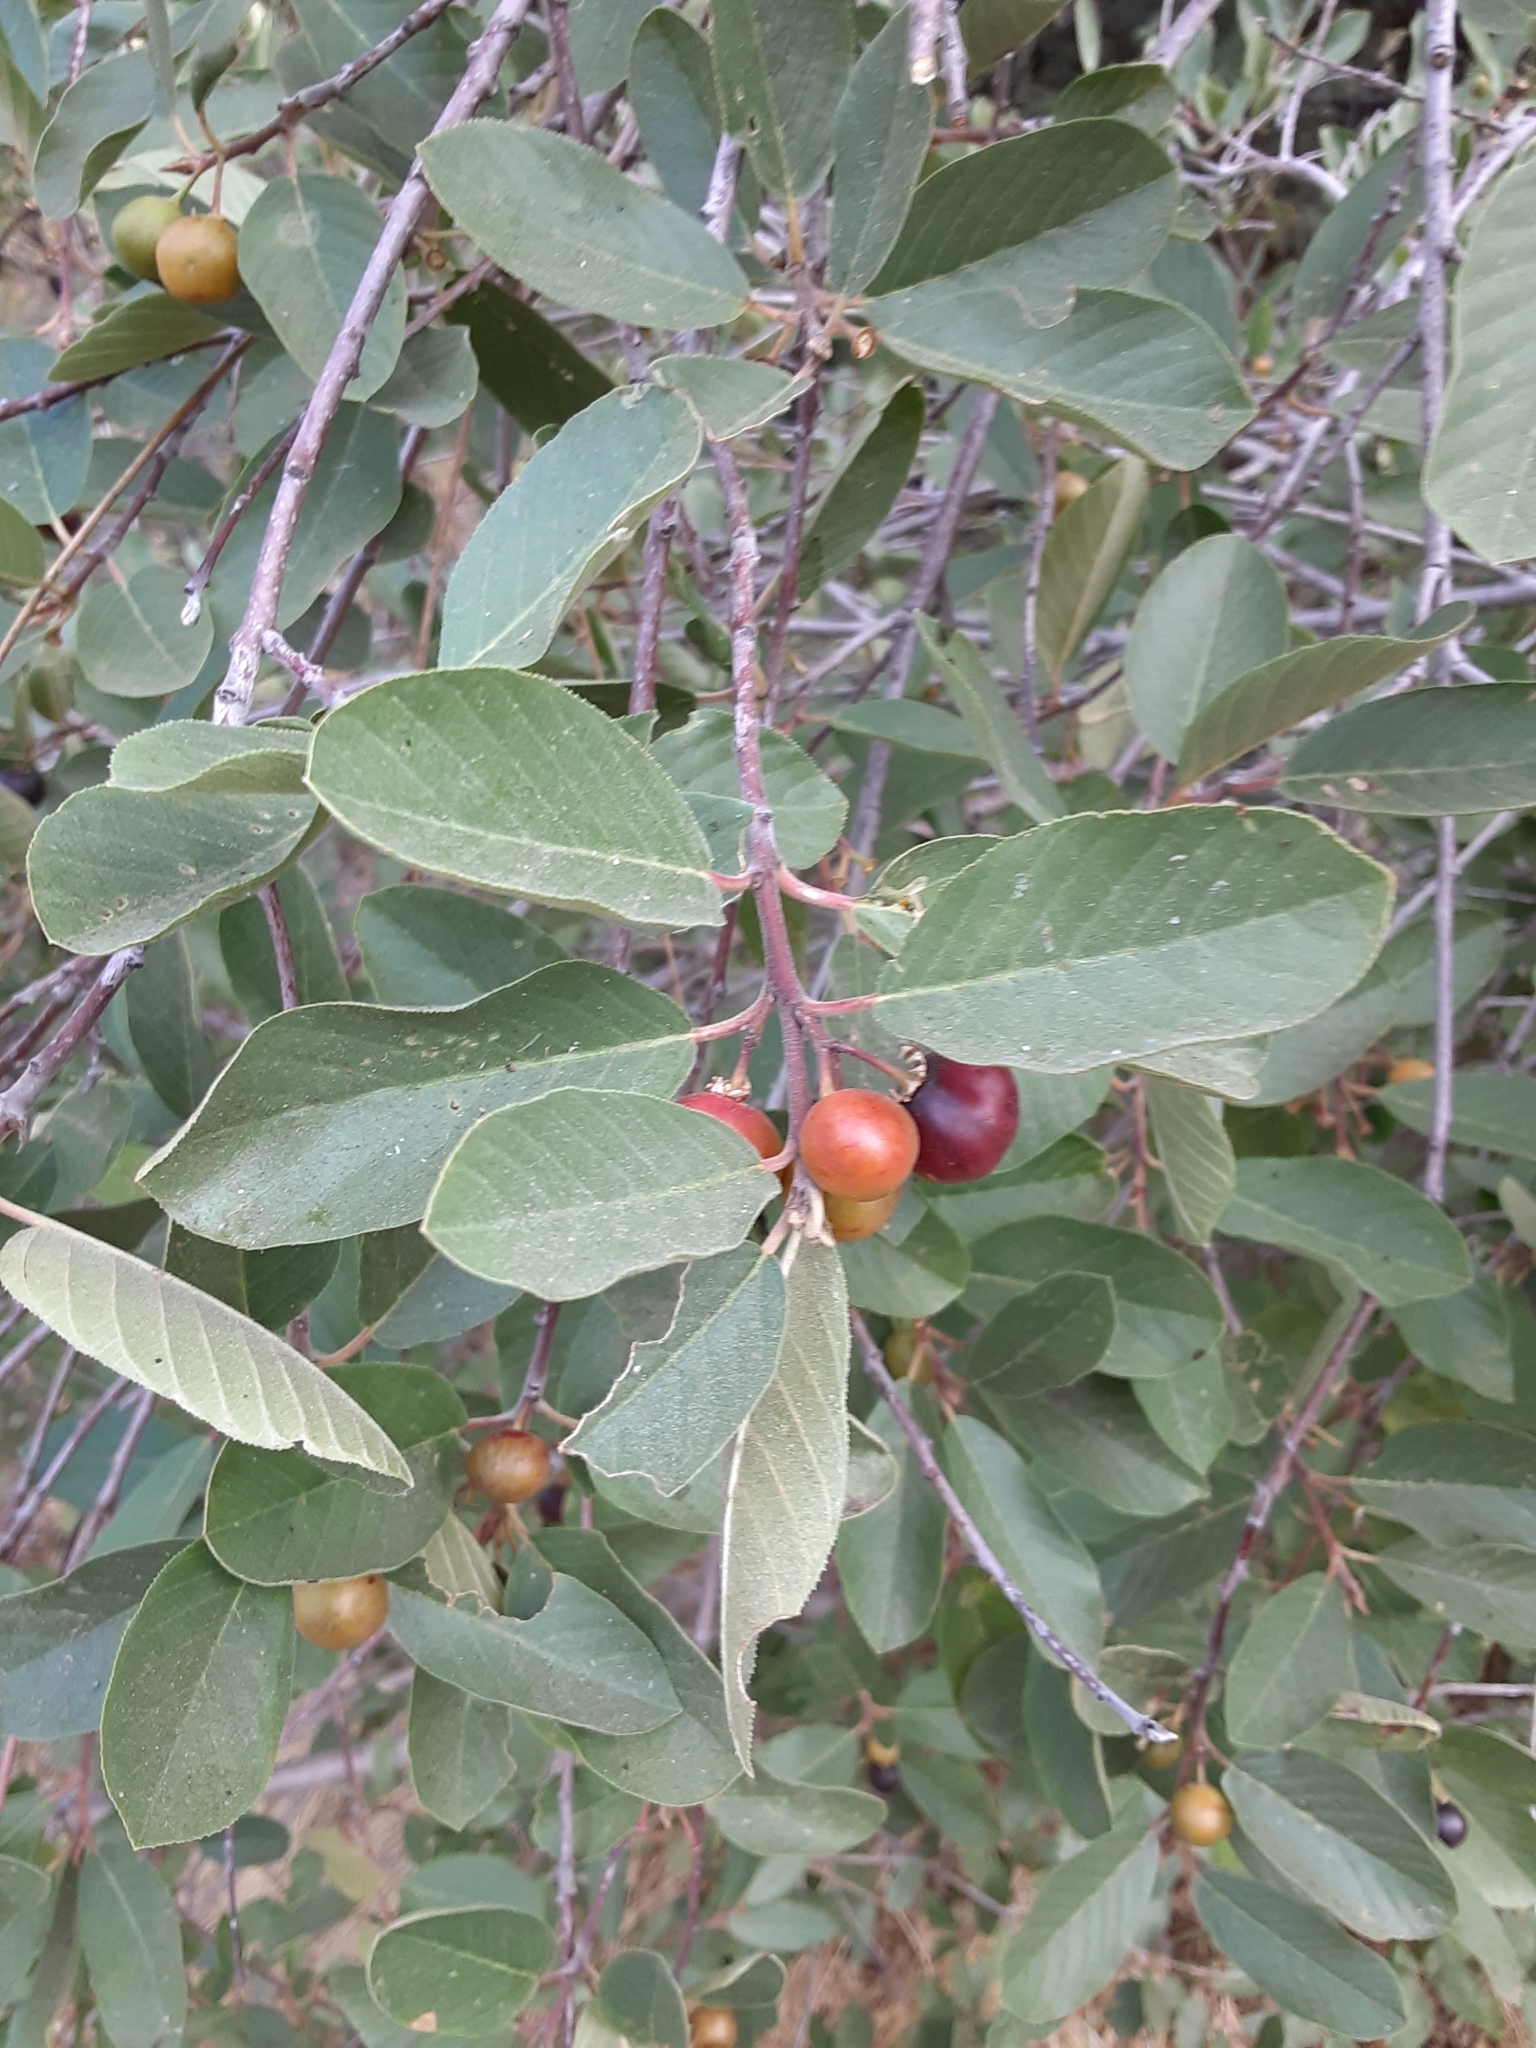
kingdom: Plantae
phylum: Tracheophyta
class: Magnoliopsida
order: Rosales
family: Rhamnaceae
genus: Frangula
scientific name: Frangula californica
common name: California buckthorn
